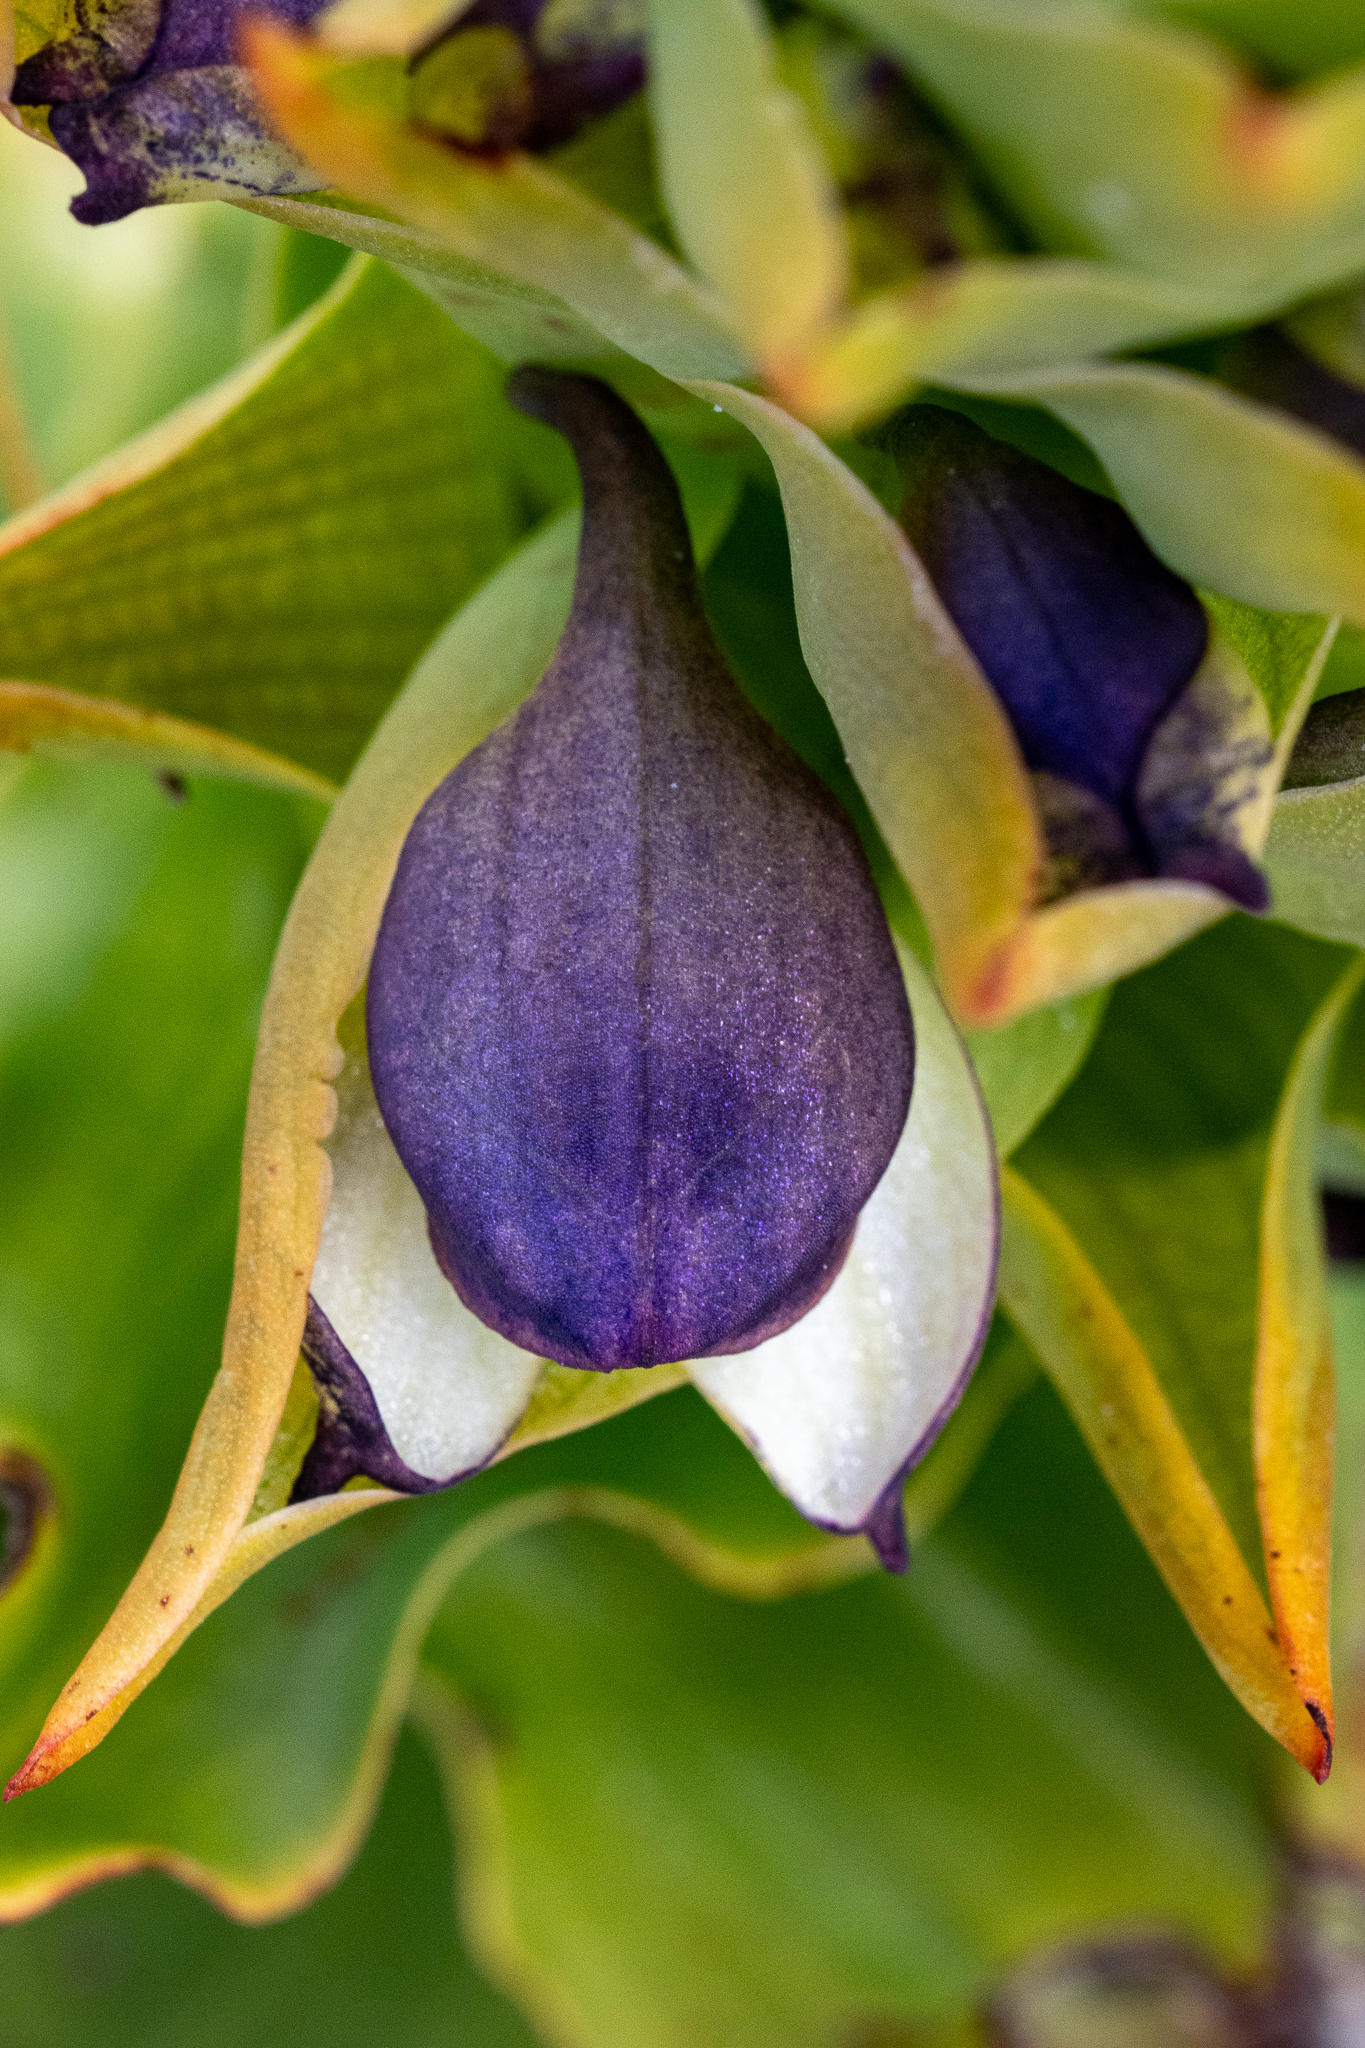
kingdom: Plantae
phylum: Tracheophyta
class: Liliopsida
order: Asparagales
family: Orchidaceae
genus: Disa
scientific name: Disa cornuta
